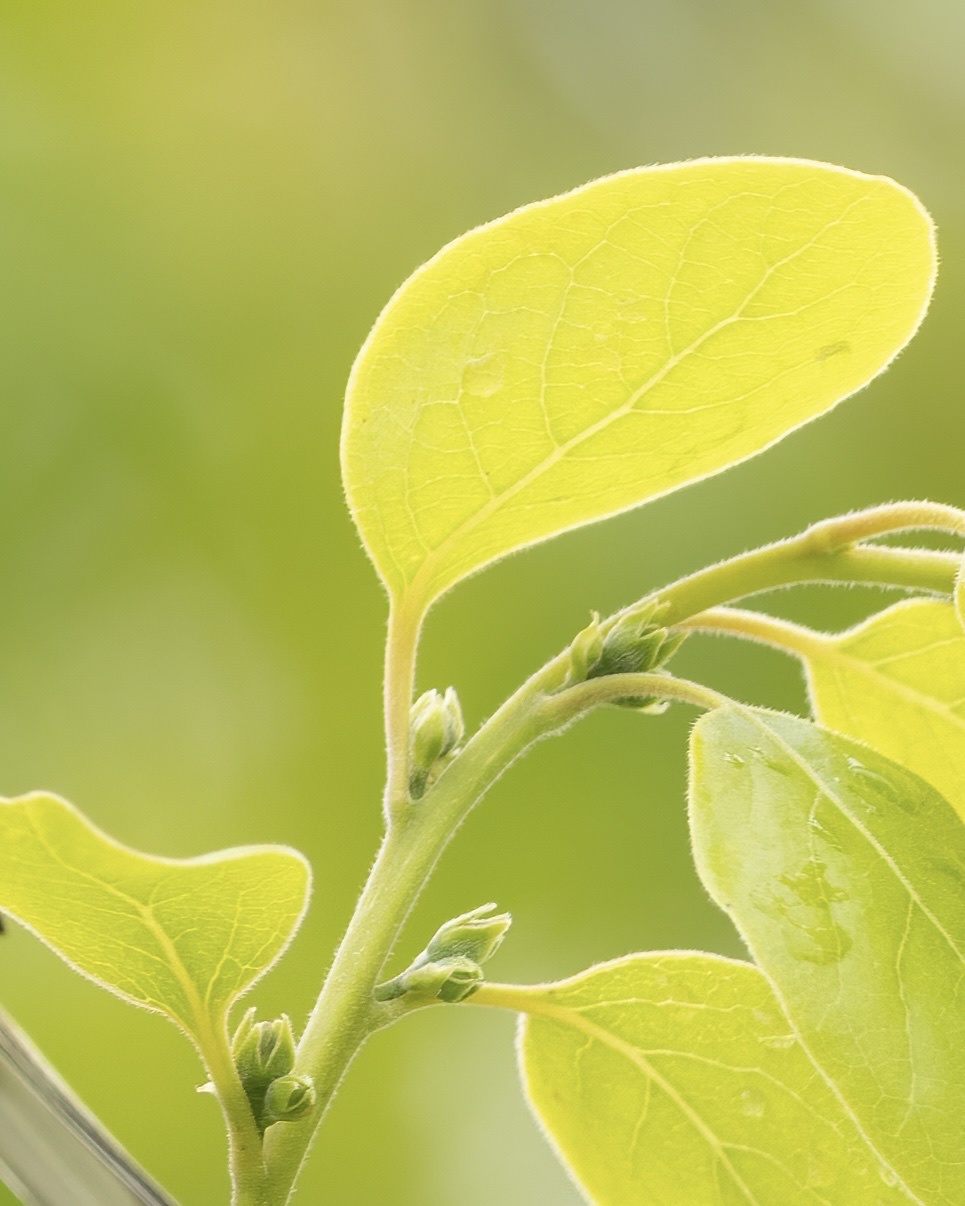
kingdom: Plantae
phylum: Tracheophyta
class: Magnoliopsida
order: Ericales
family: Ebenaceae
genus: Diospyros
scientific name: Diospyros virginiana
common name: Persimmon
